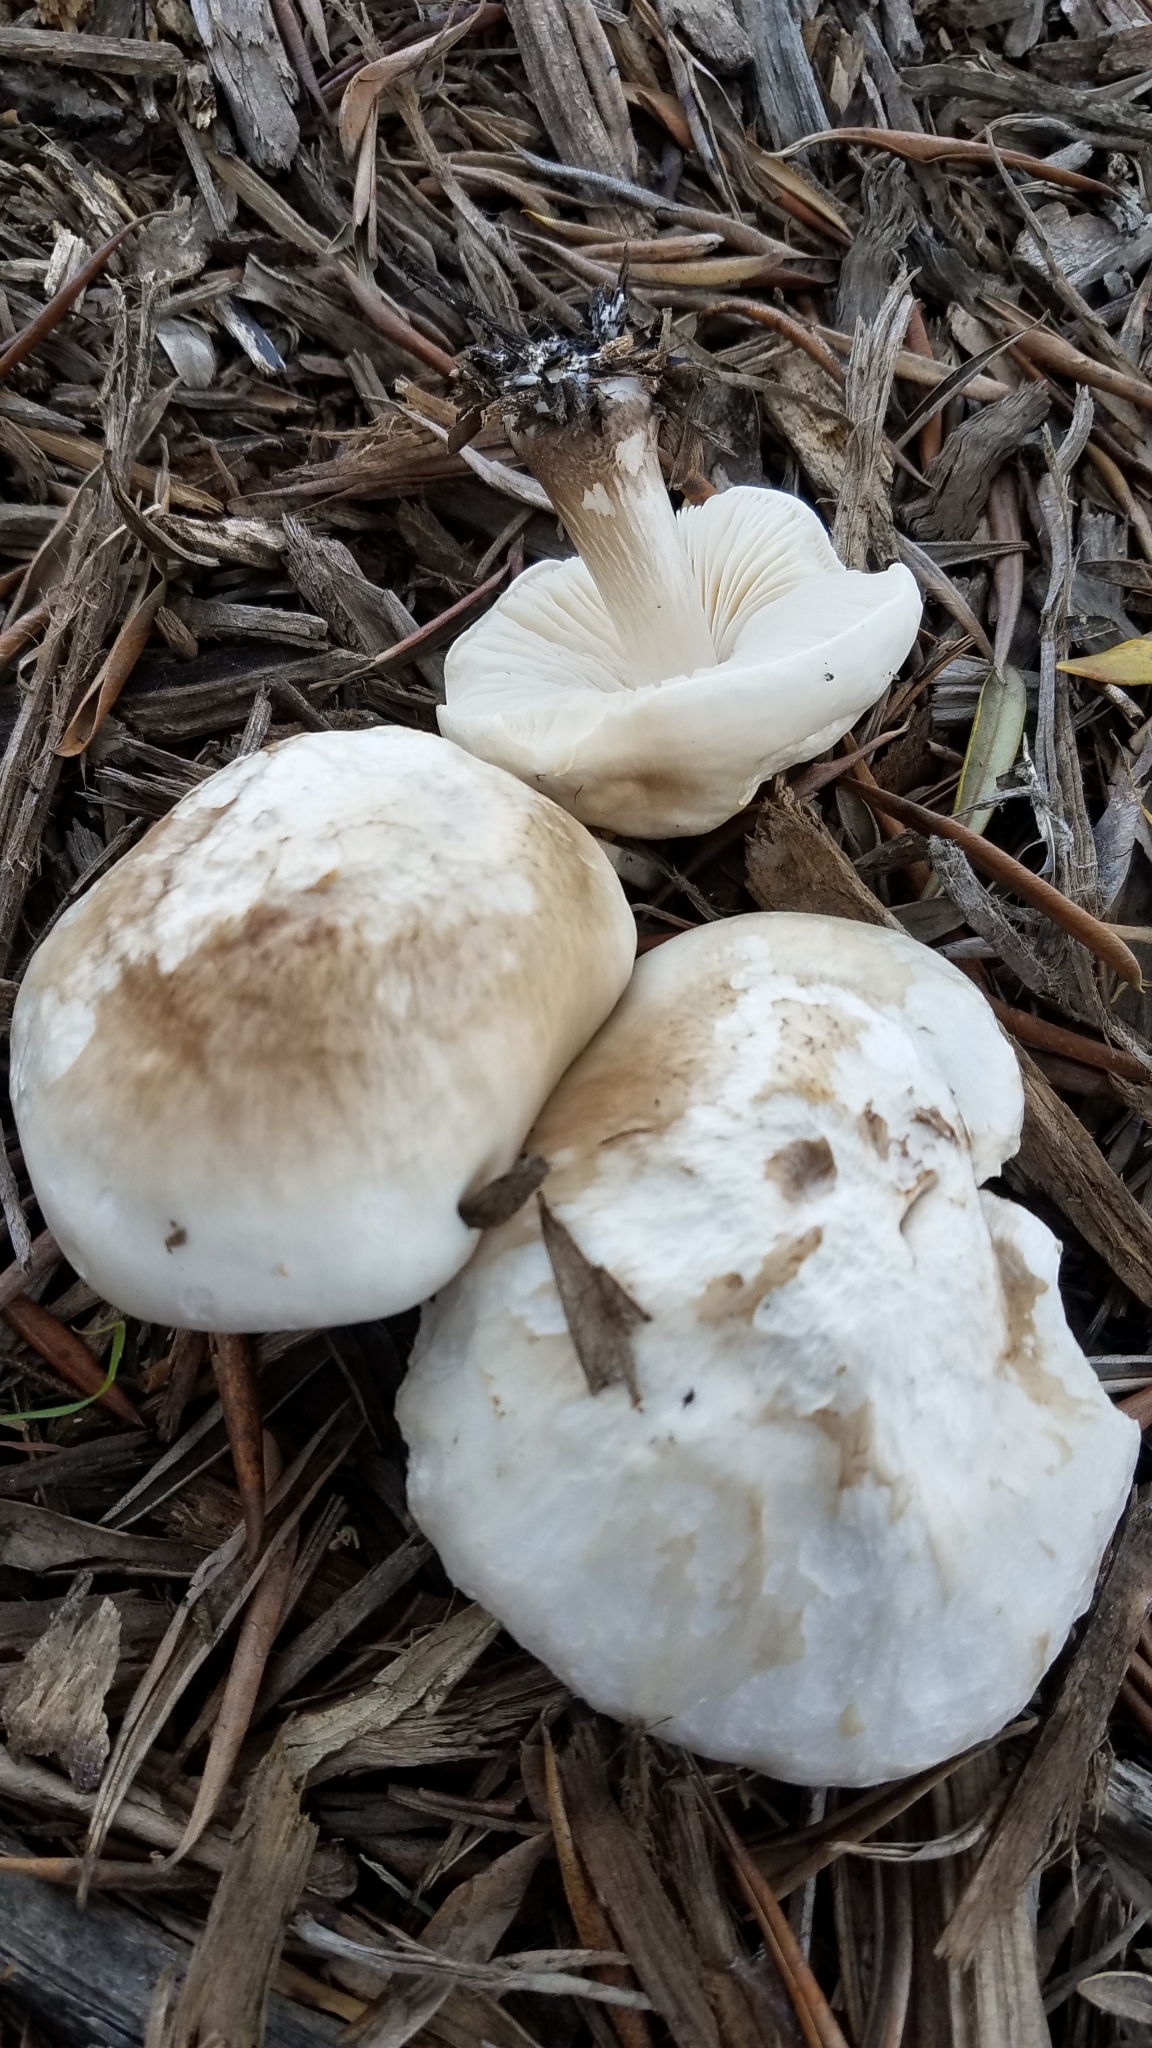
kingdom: Fungi
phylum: Basidiomycota
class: Agaricomycetes
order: Agaricales
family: Pluteaceae
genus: Pluteus
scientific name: Pluteus petasatus
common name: Scaly shield
